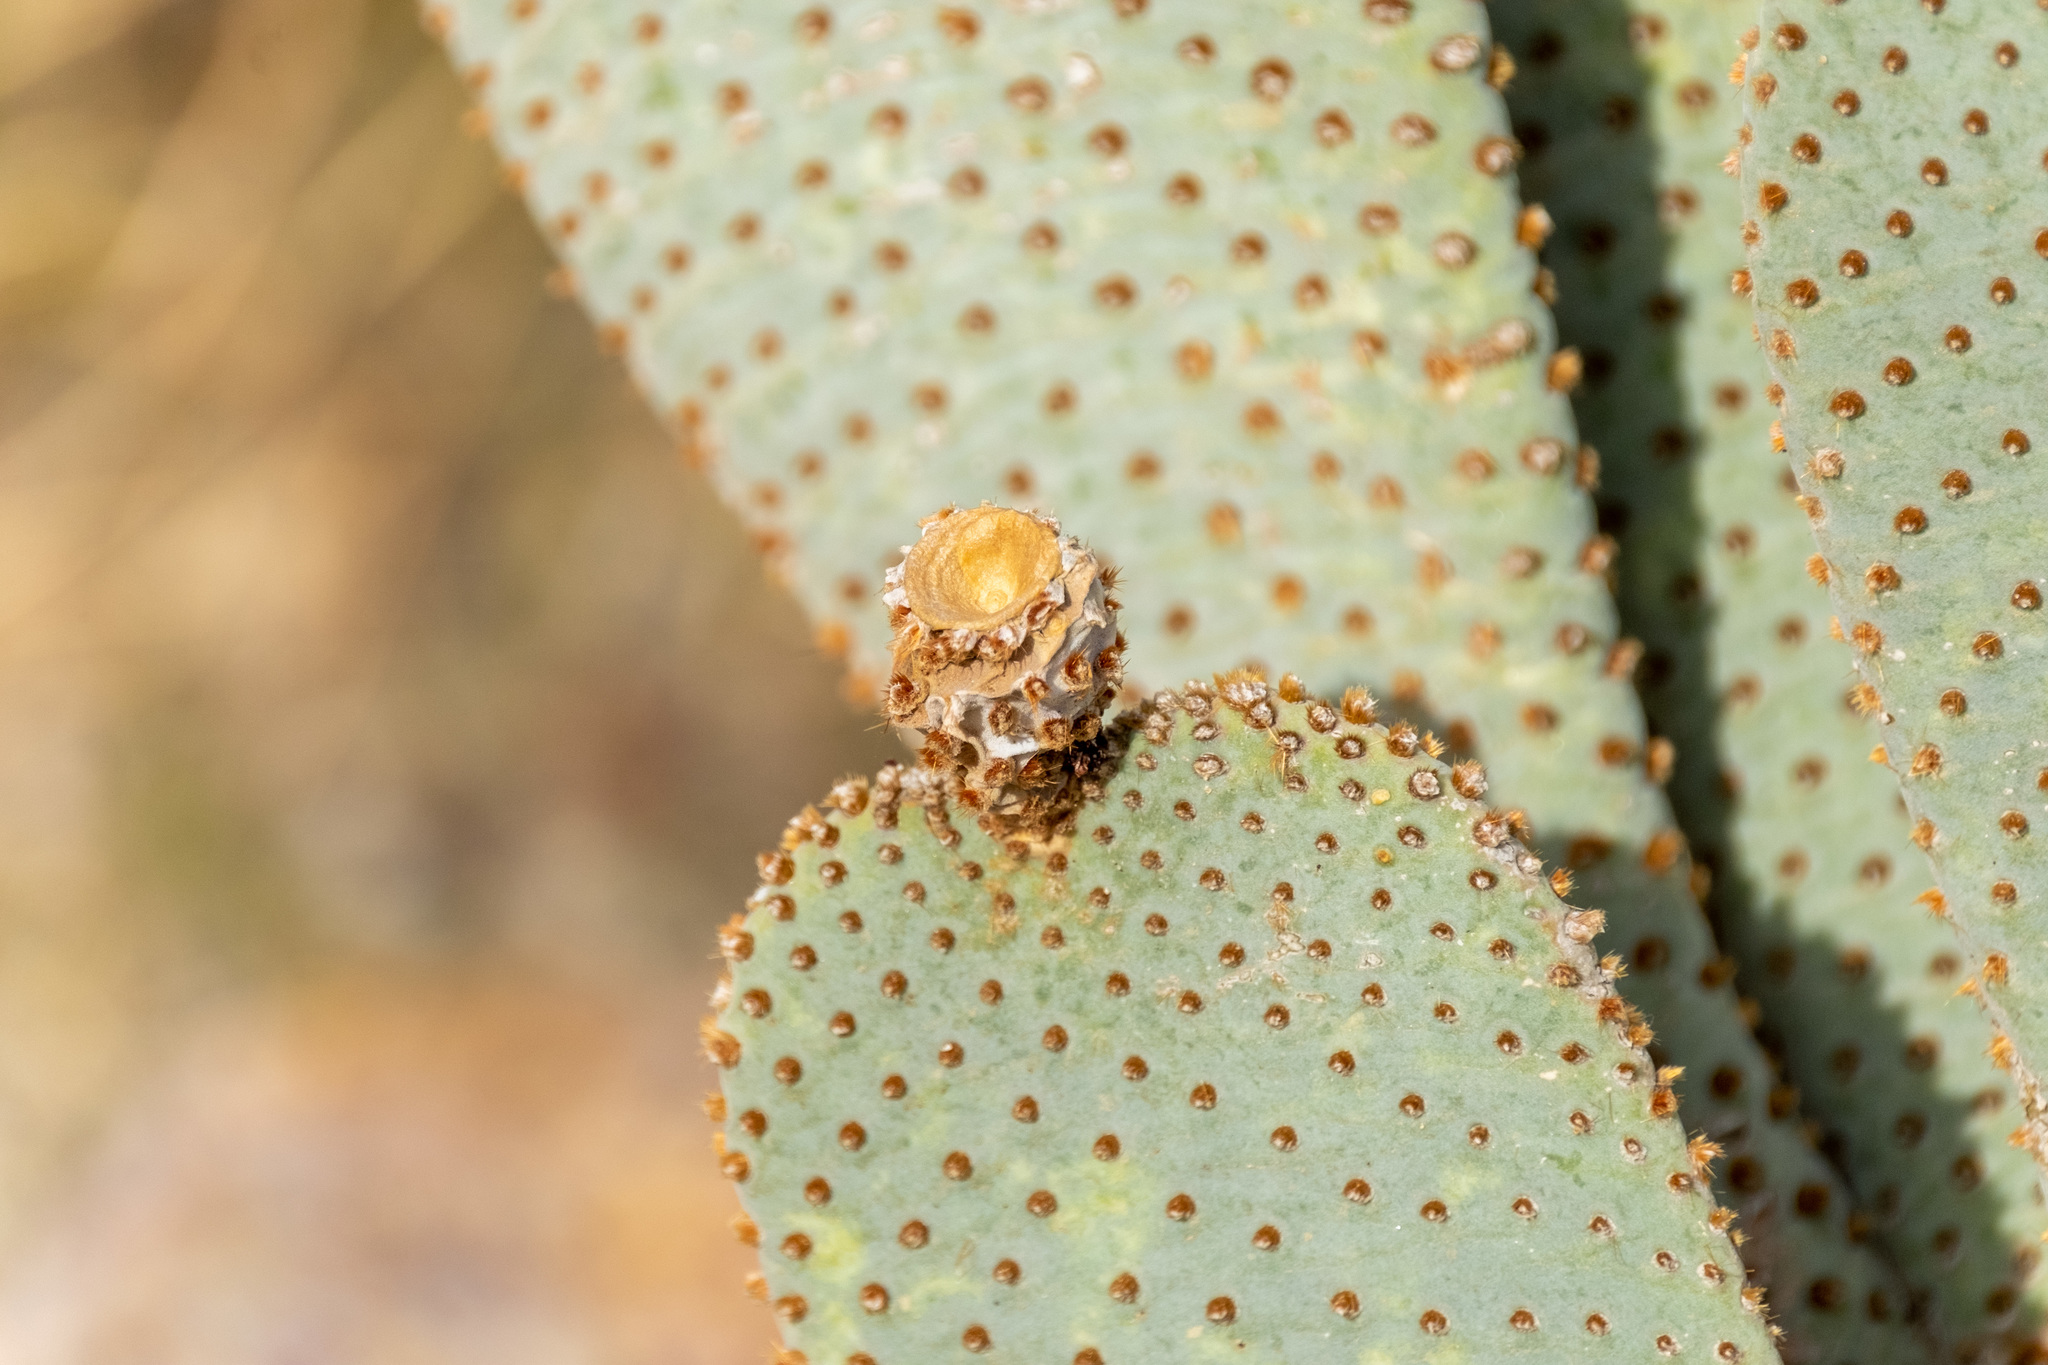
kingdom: Plantae
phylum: Tracheophyta
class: Magnoliopsida
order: Caryophyllales
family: Cactaceae
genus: Opuntia
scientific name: Opuntia basilaris
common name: Beavertail prickly-pear
